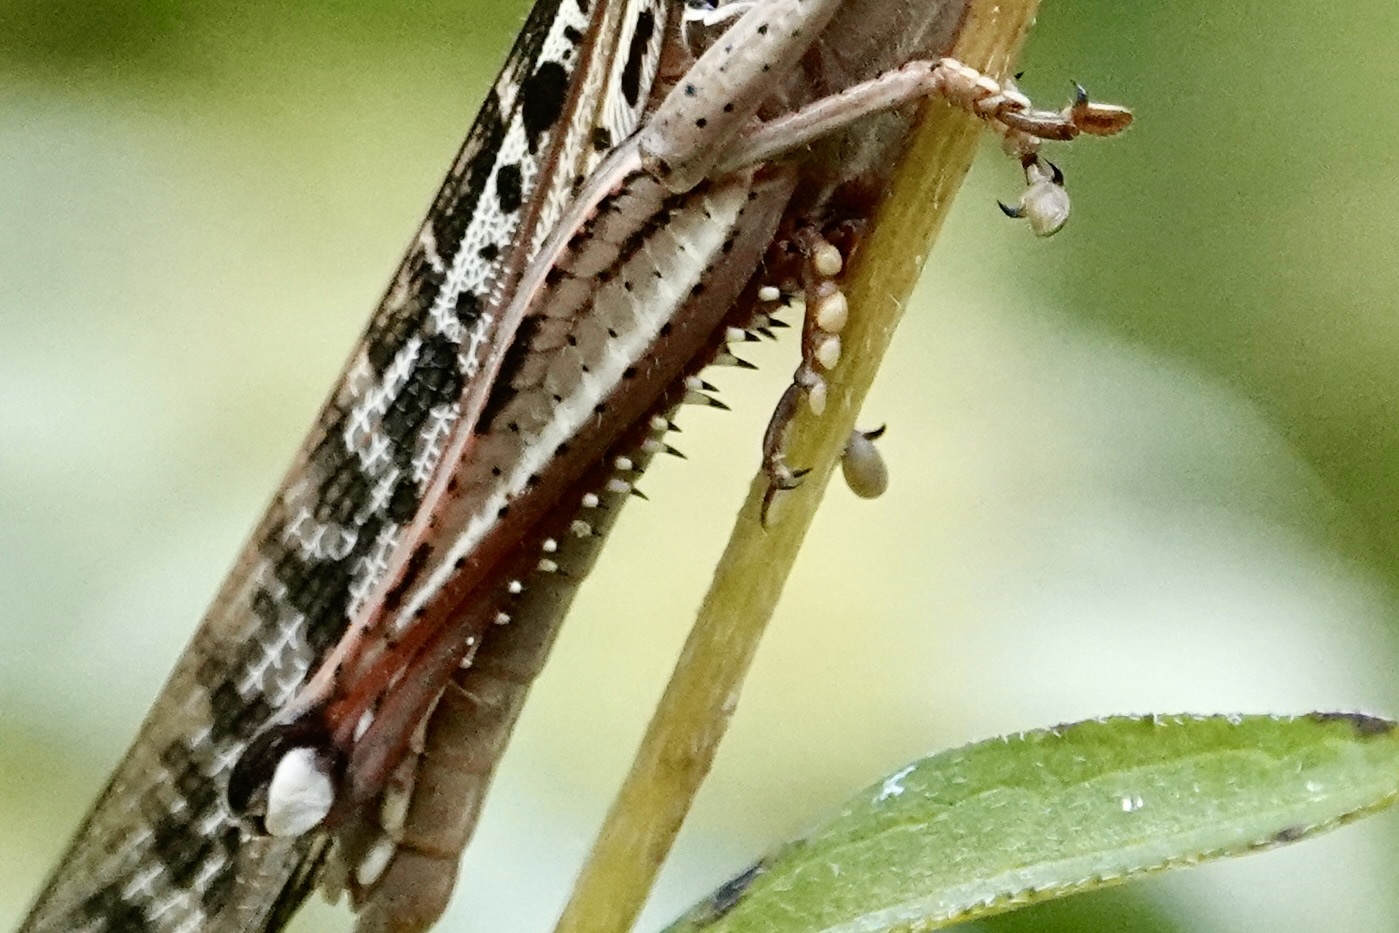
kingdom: Animalia
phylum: Arthropoda
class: Insecta
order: Orthoptera
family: Acrididae
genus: Schistocerca
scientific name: Schistocerca americana
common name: American bird locust
